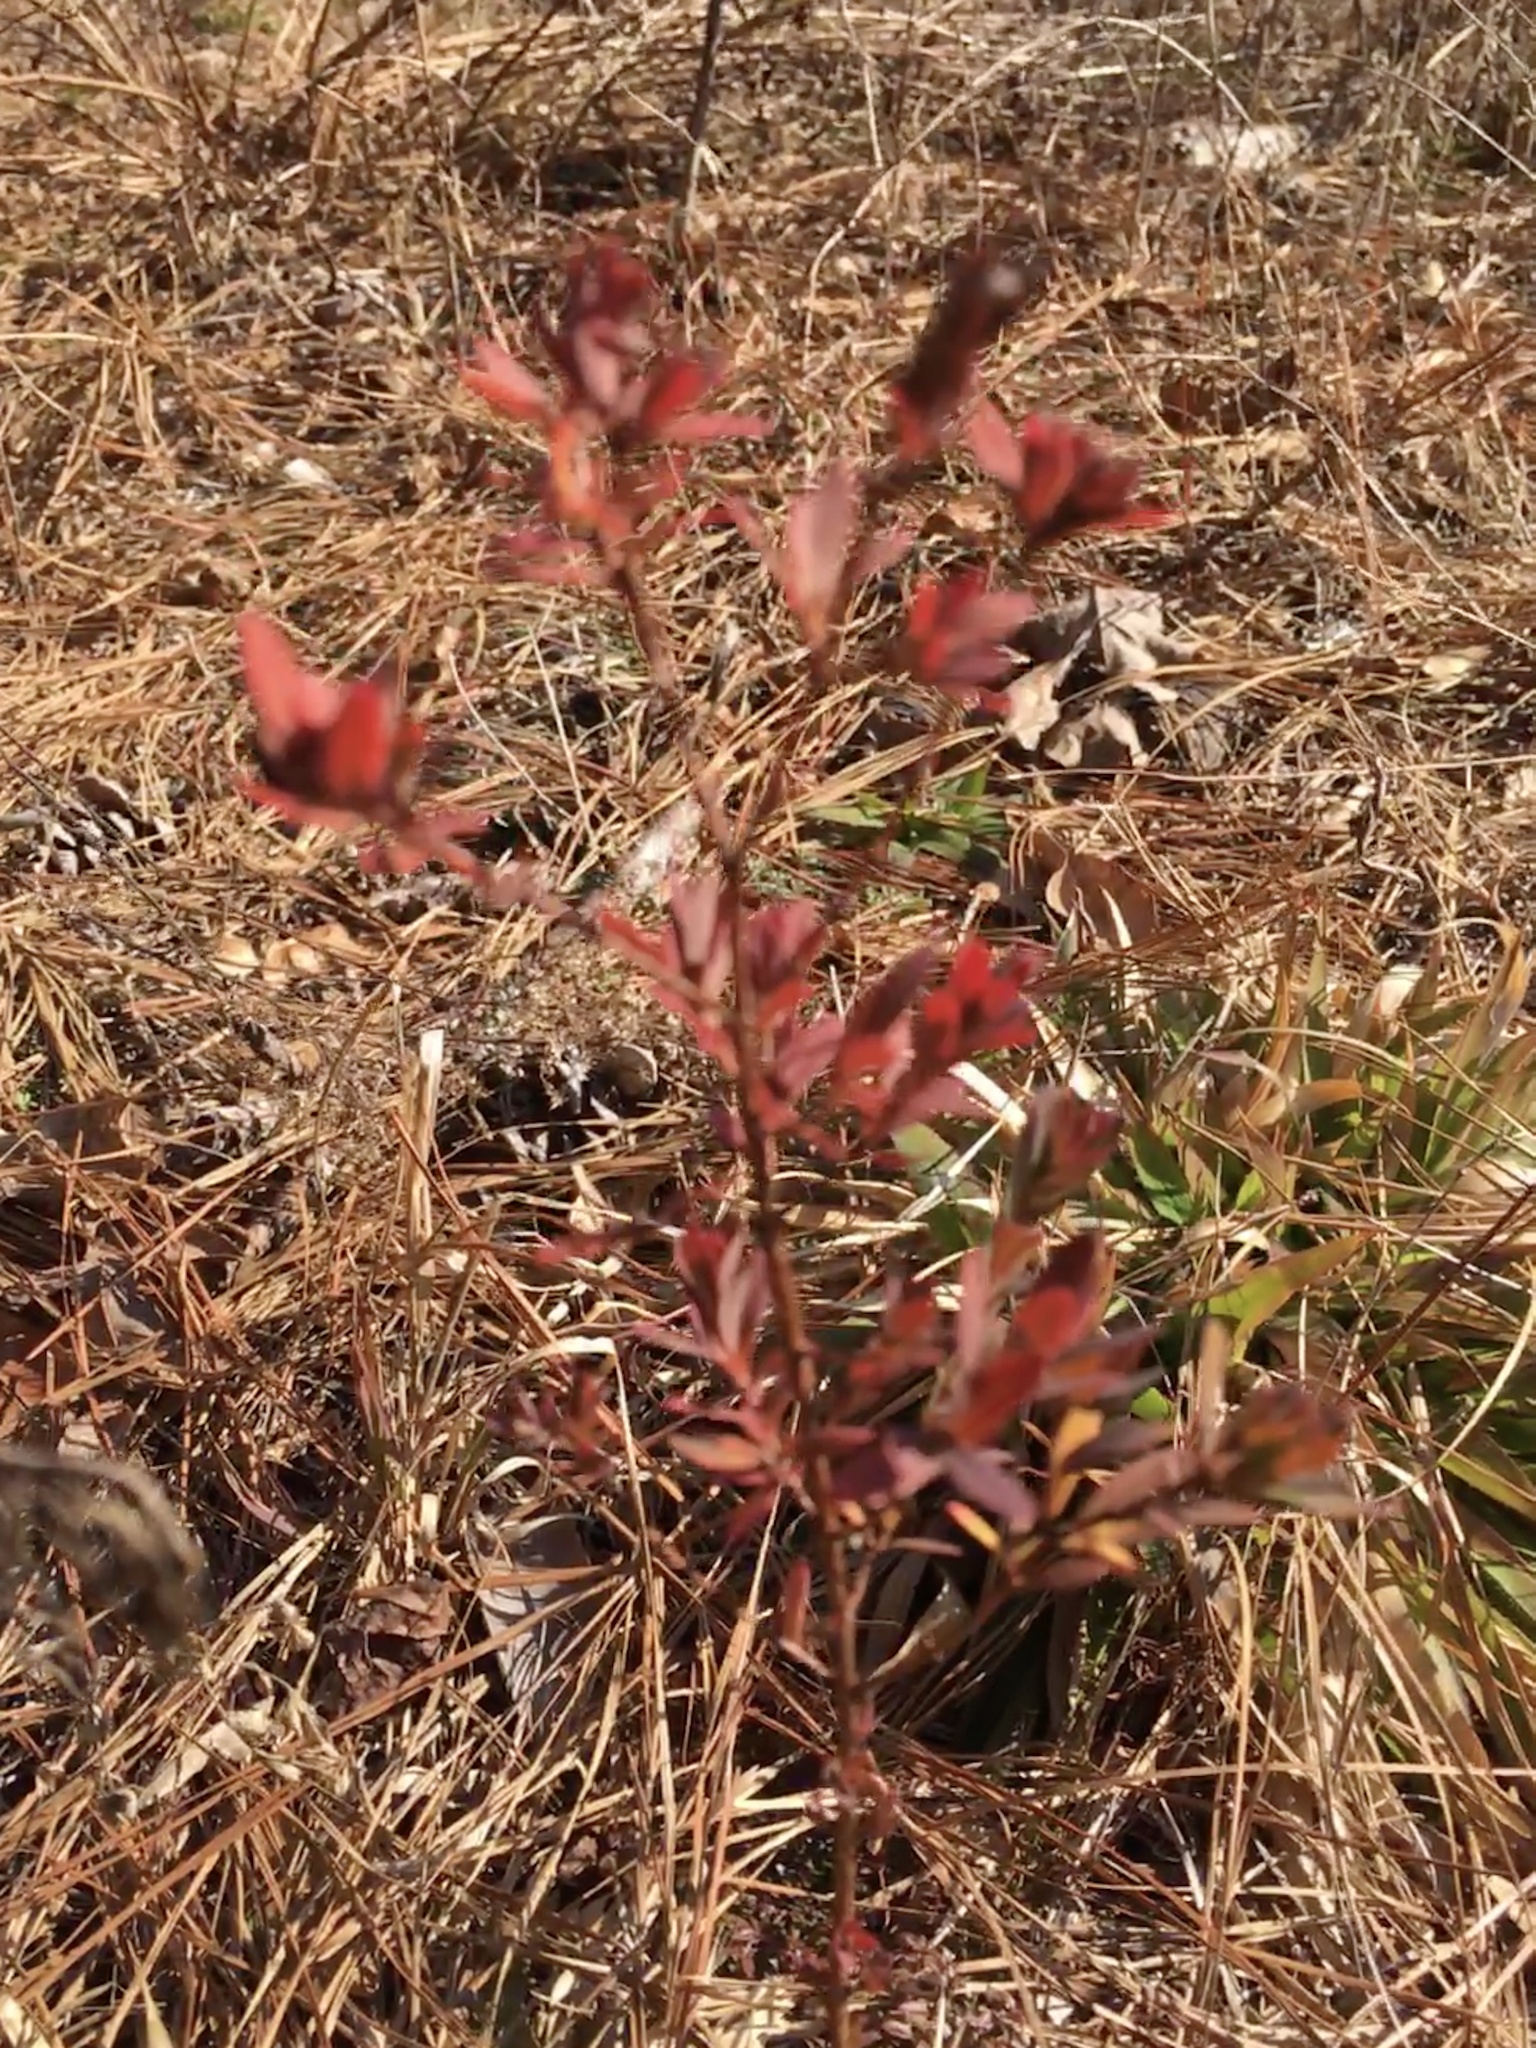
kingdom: Plantae
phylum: Tracheophyta
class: Magnoliopsida
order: Malpighiales
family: Hypericaceae
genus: Hypericum
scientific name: Hypericum hypericoides
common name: St. andrew's cross
